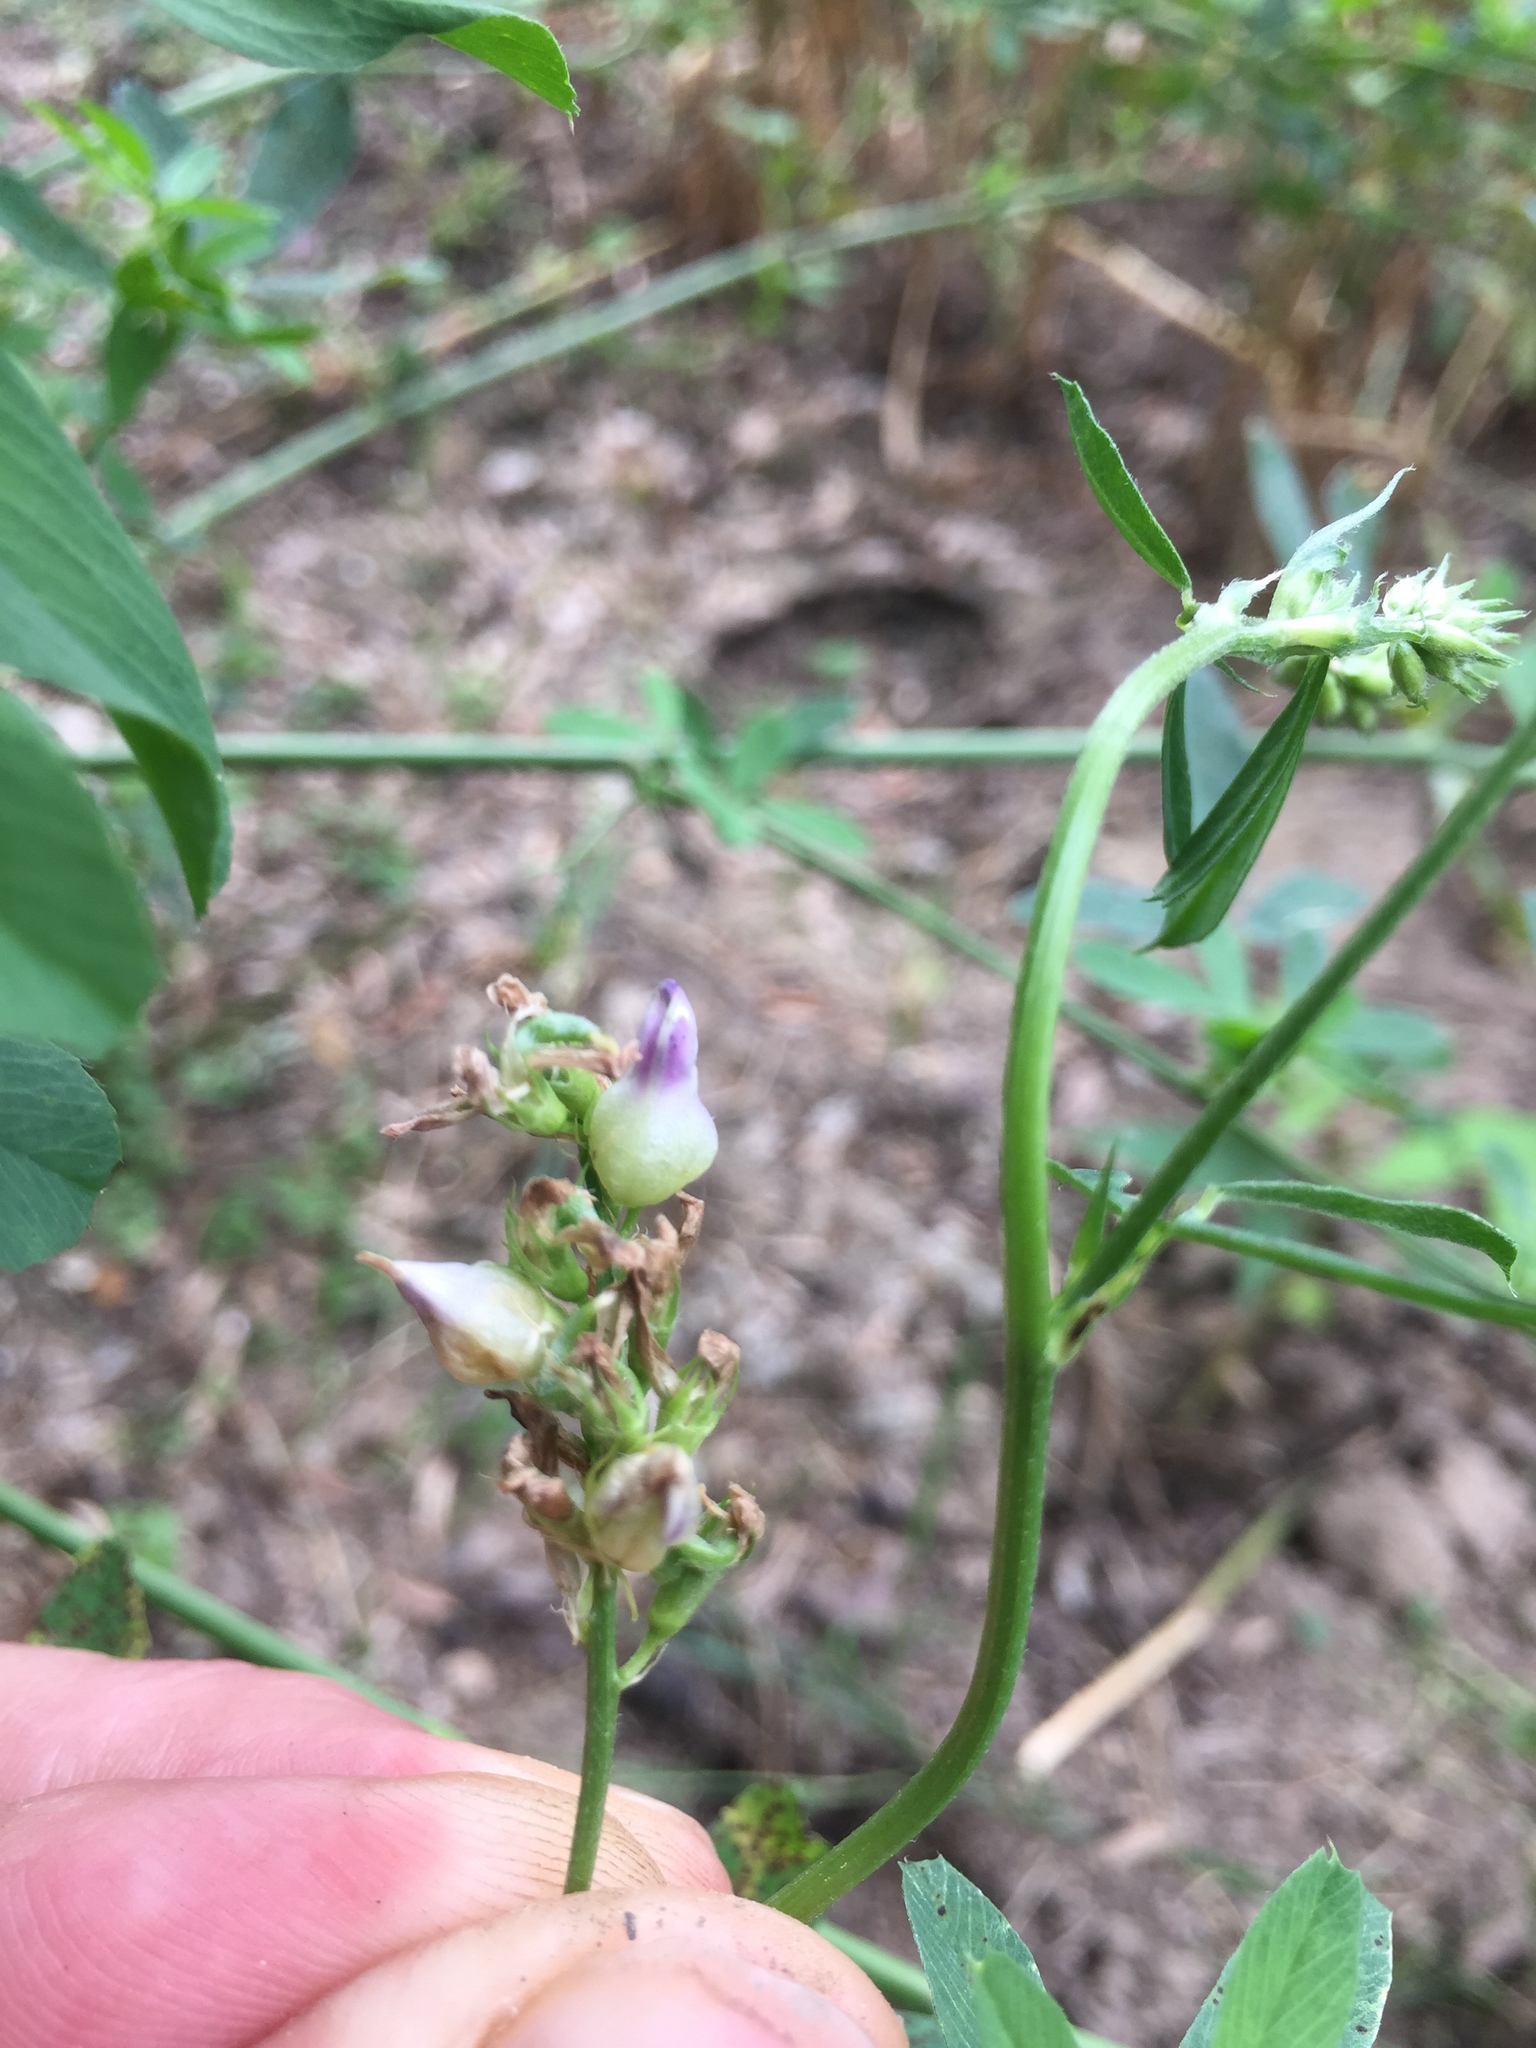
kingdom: Animalia
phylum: Arthropoda
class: Insecta
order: Diptera
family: Cecidomyiidae
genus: Contarinia
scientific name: Contarinia medicaginis
